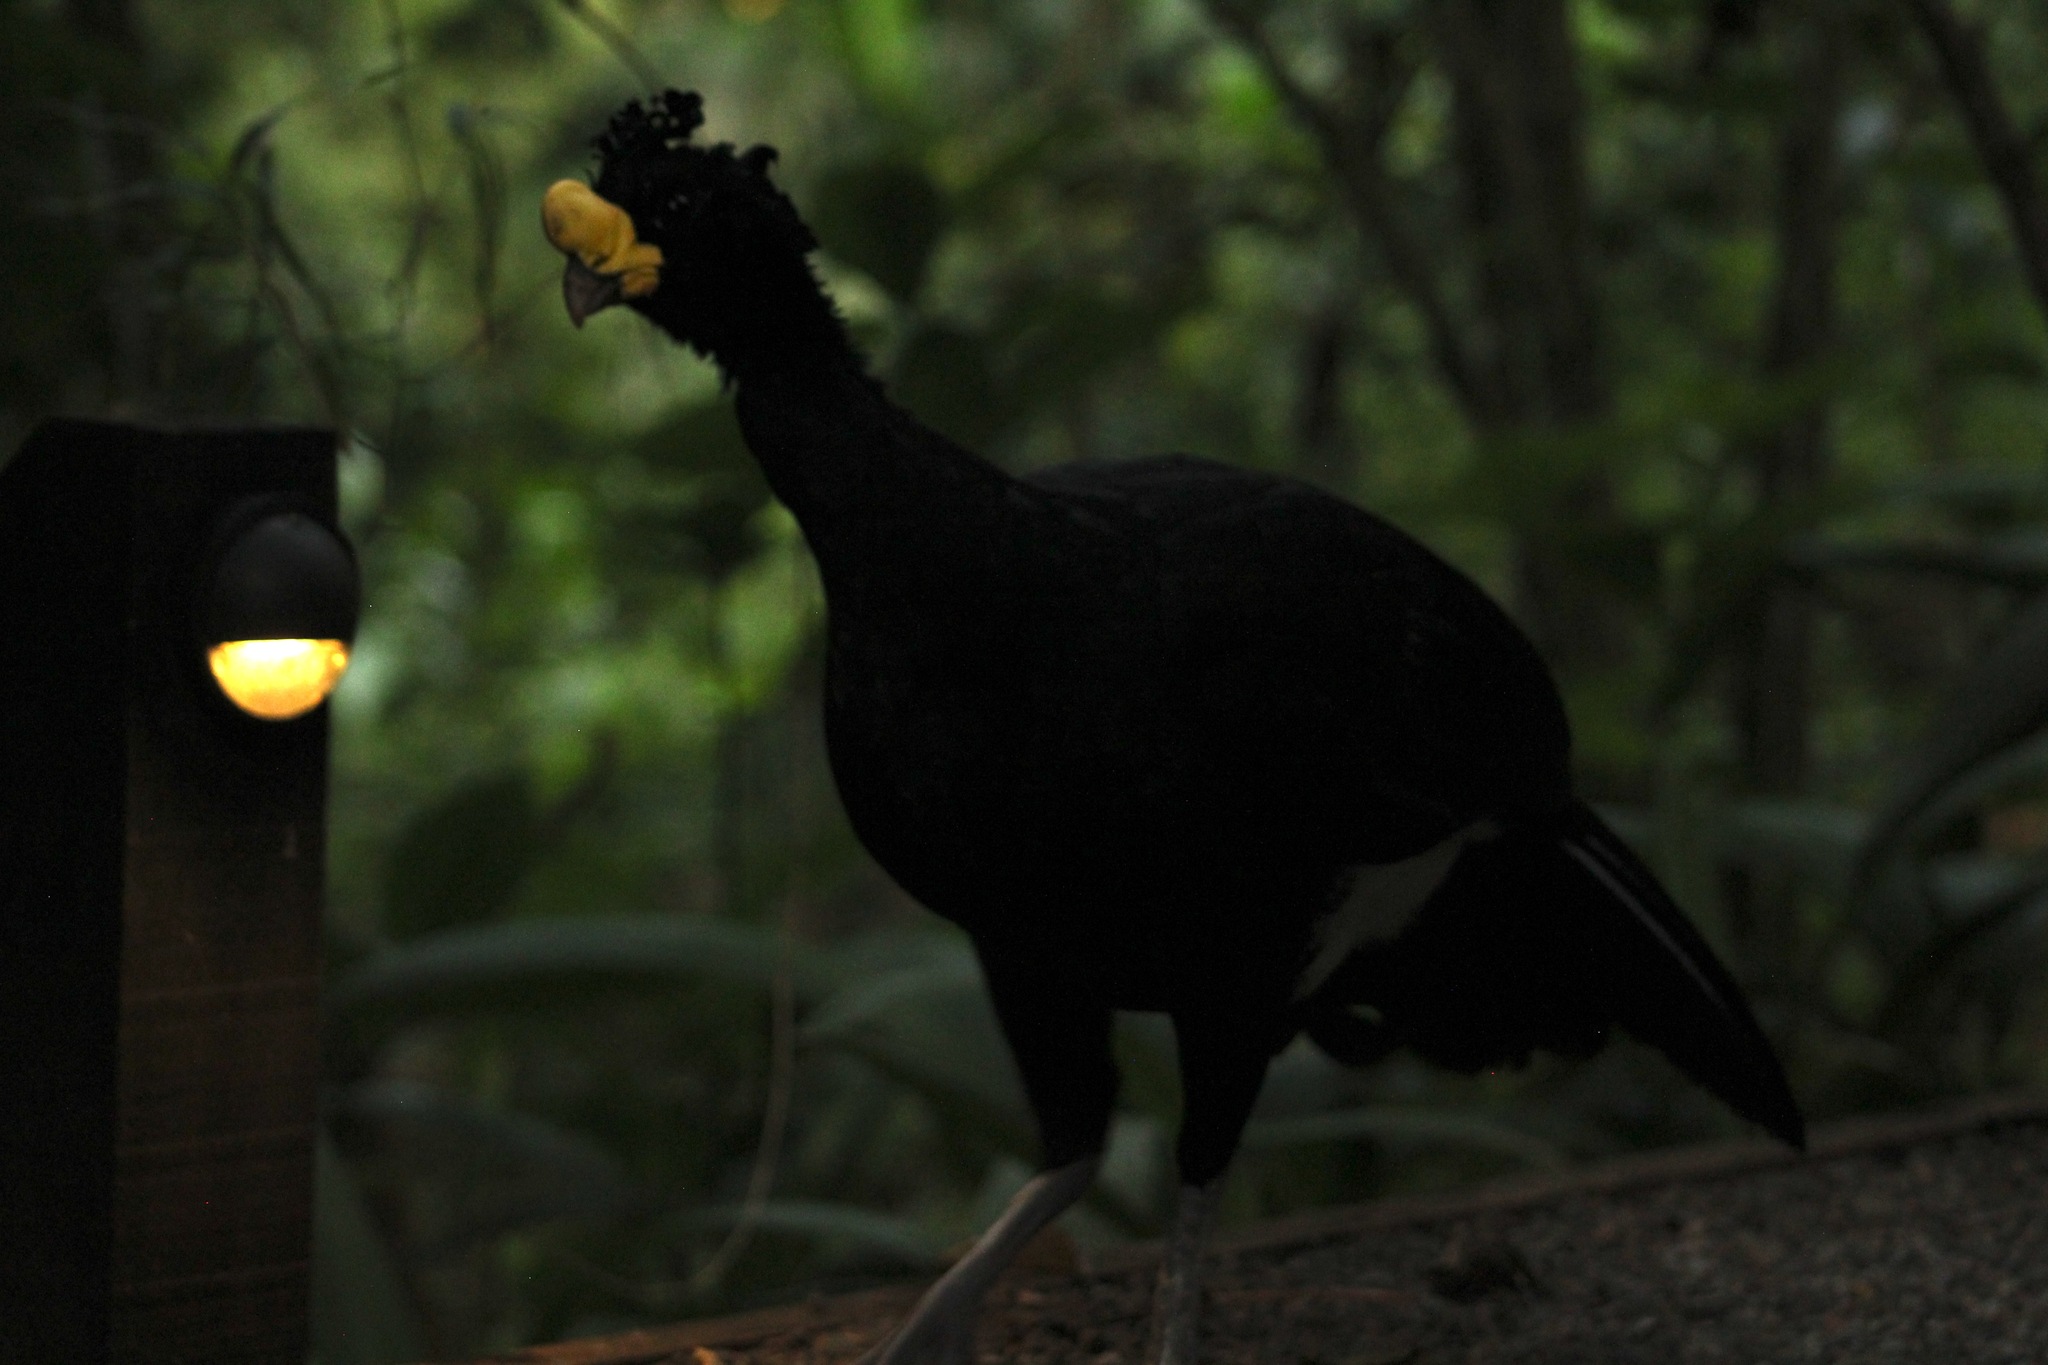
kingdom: Animalia
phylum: Chordata
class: Aves
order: Galliformes
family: Cracidae
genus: Crax
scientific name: Crax rubra
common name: Great curassow
